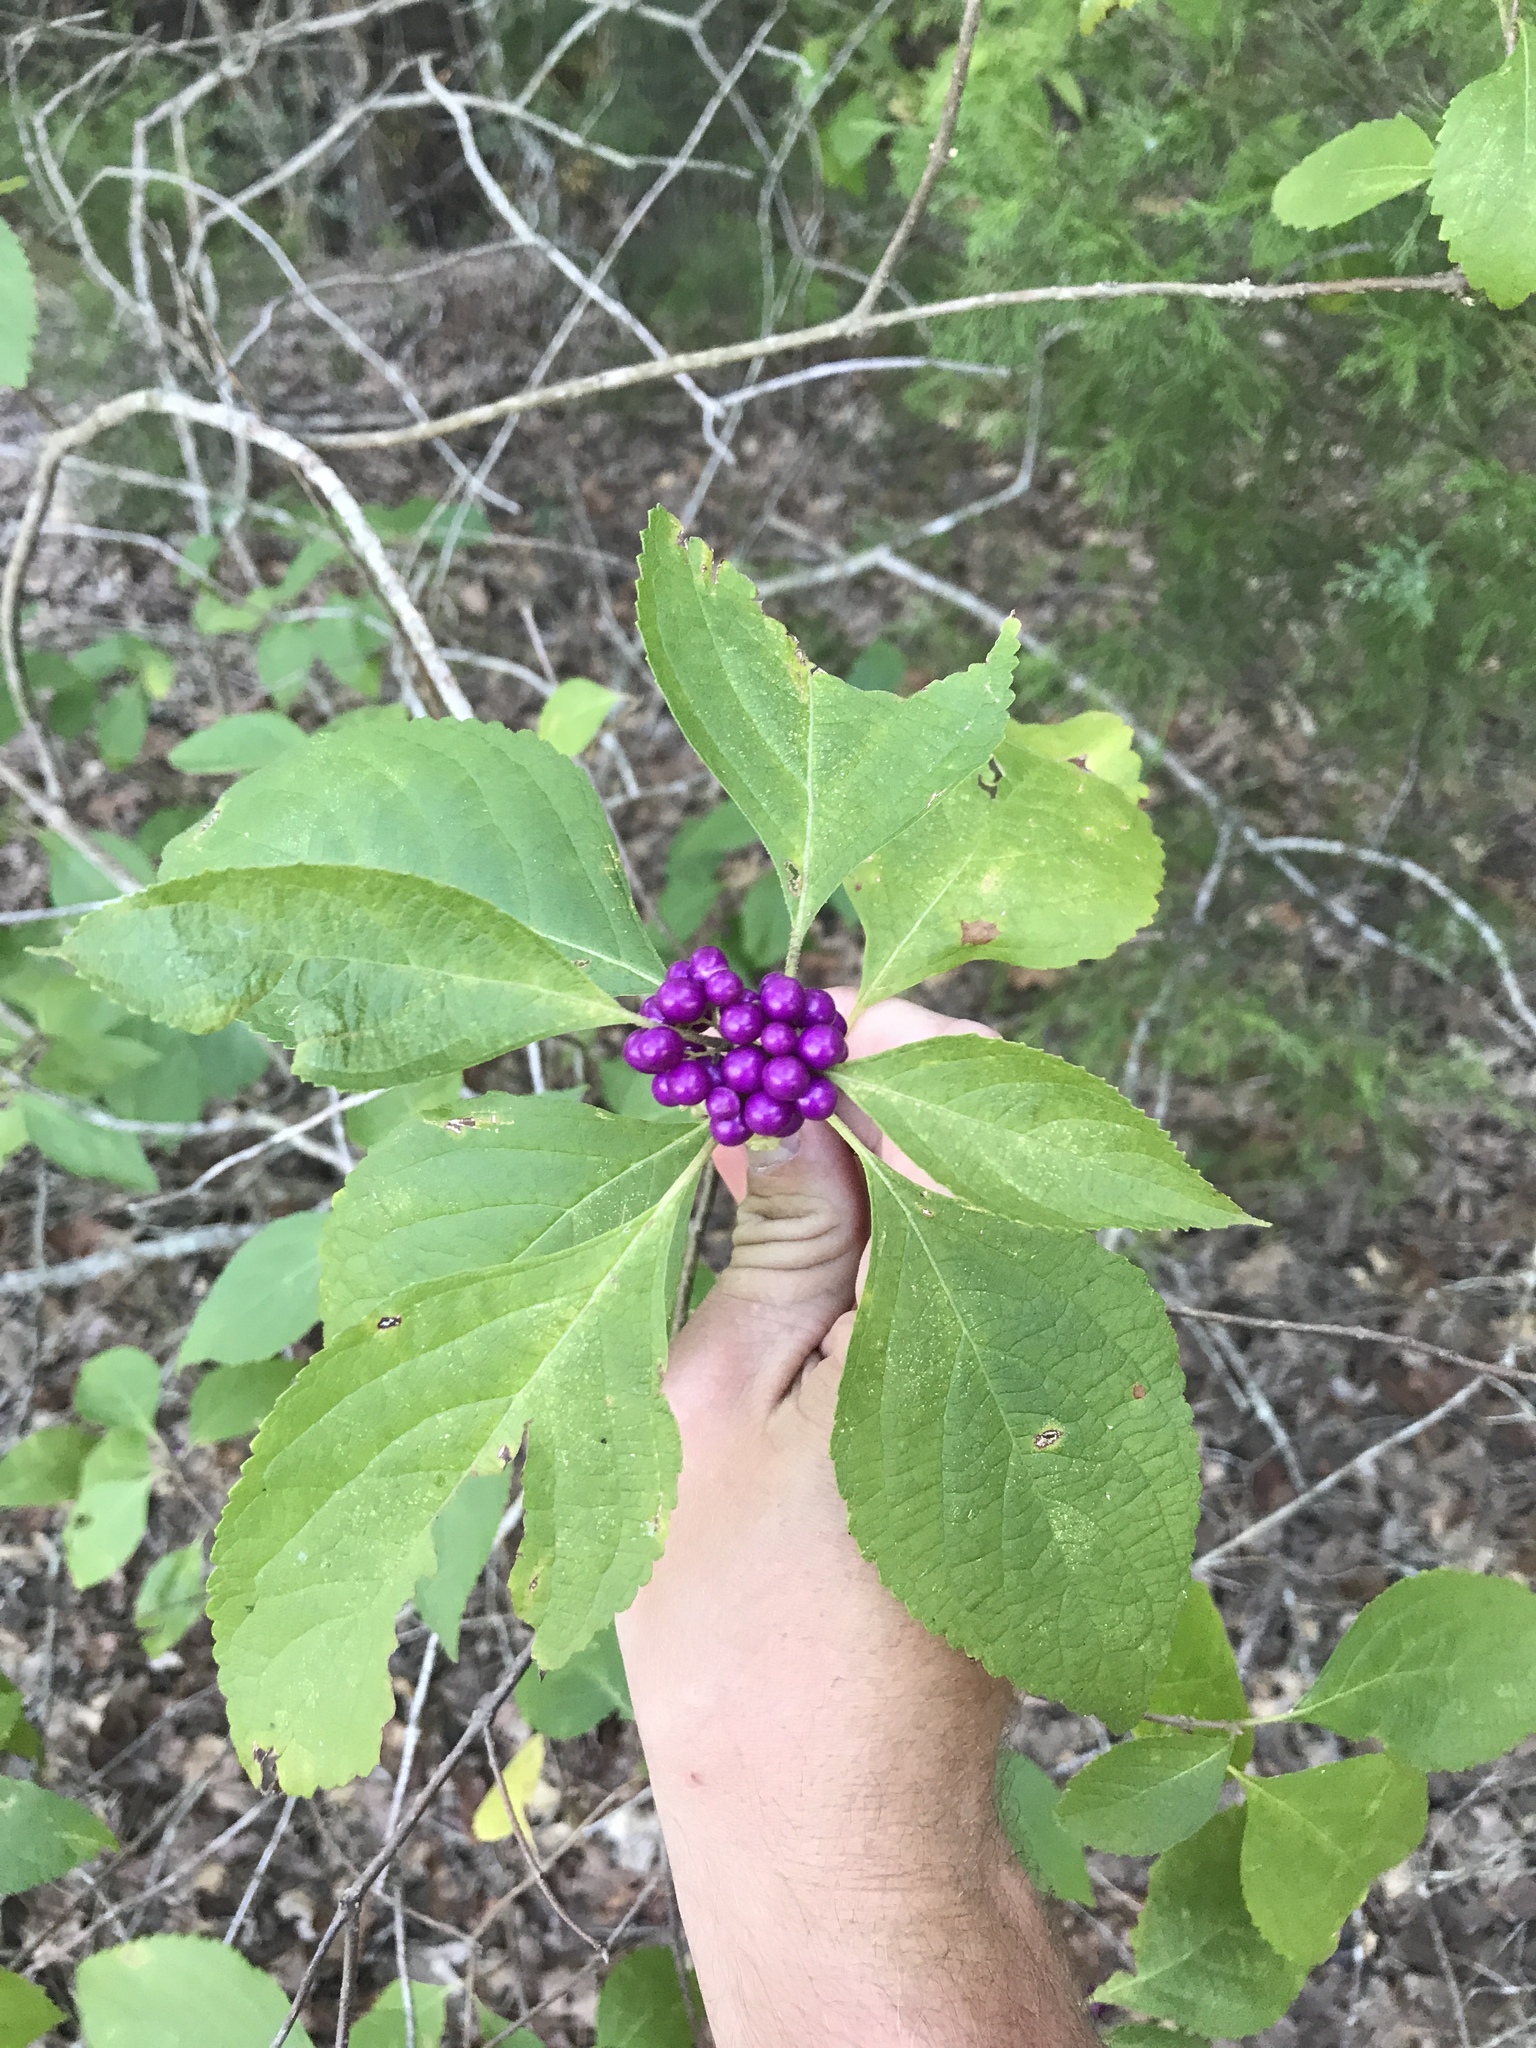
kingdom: Plantae
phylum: Tracheophyta
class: Magnoliopsida
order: Lamiales
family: Lamiaceae
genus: Callicarpa
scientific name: Callicarpa americana
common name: American beautyberry
